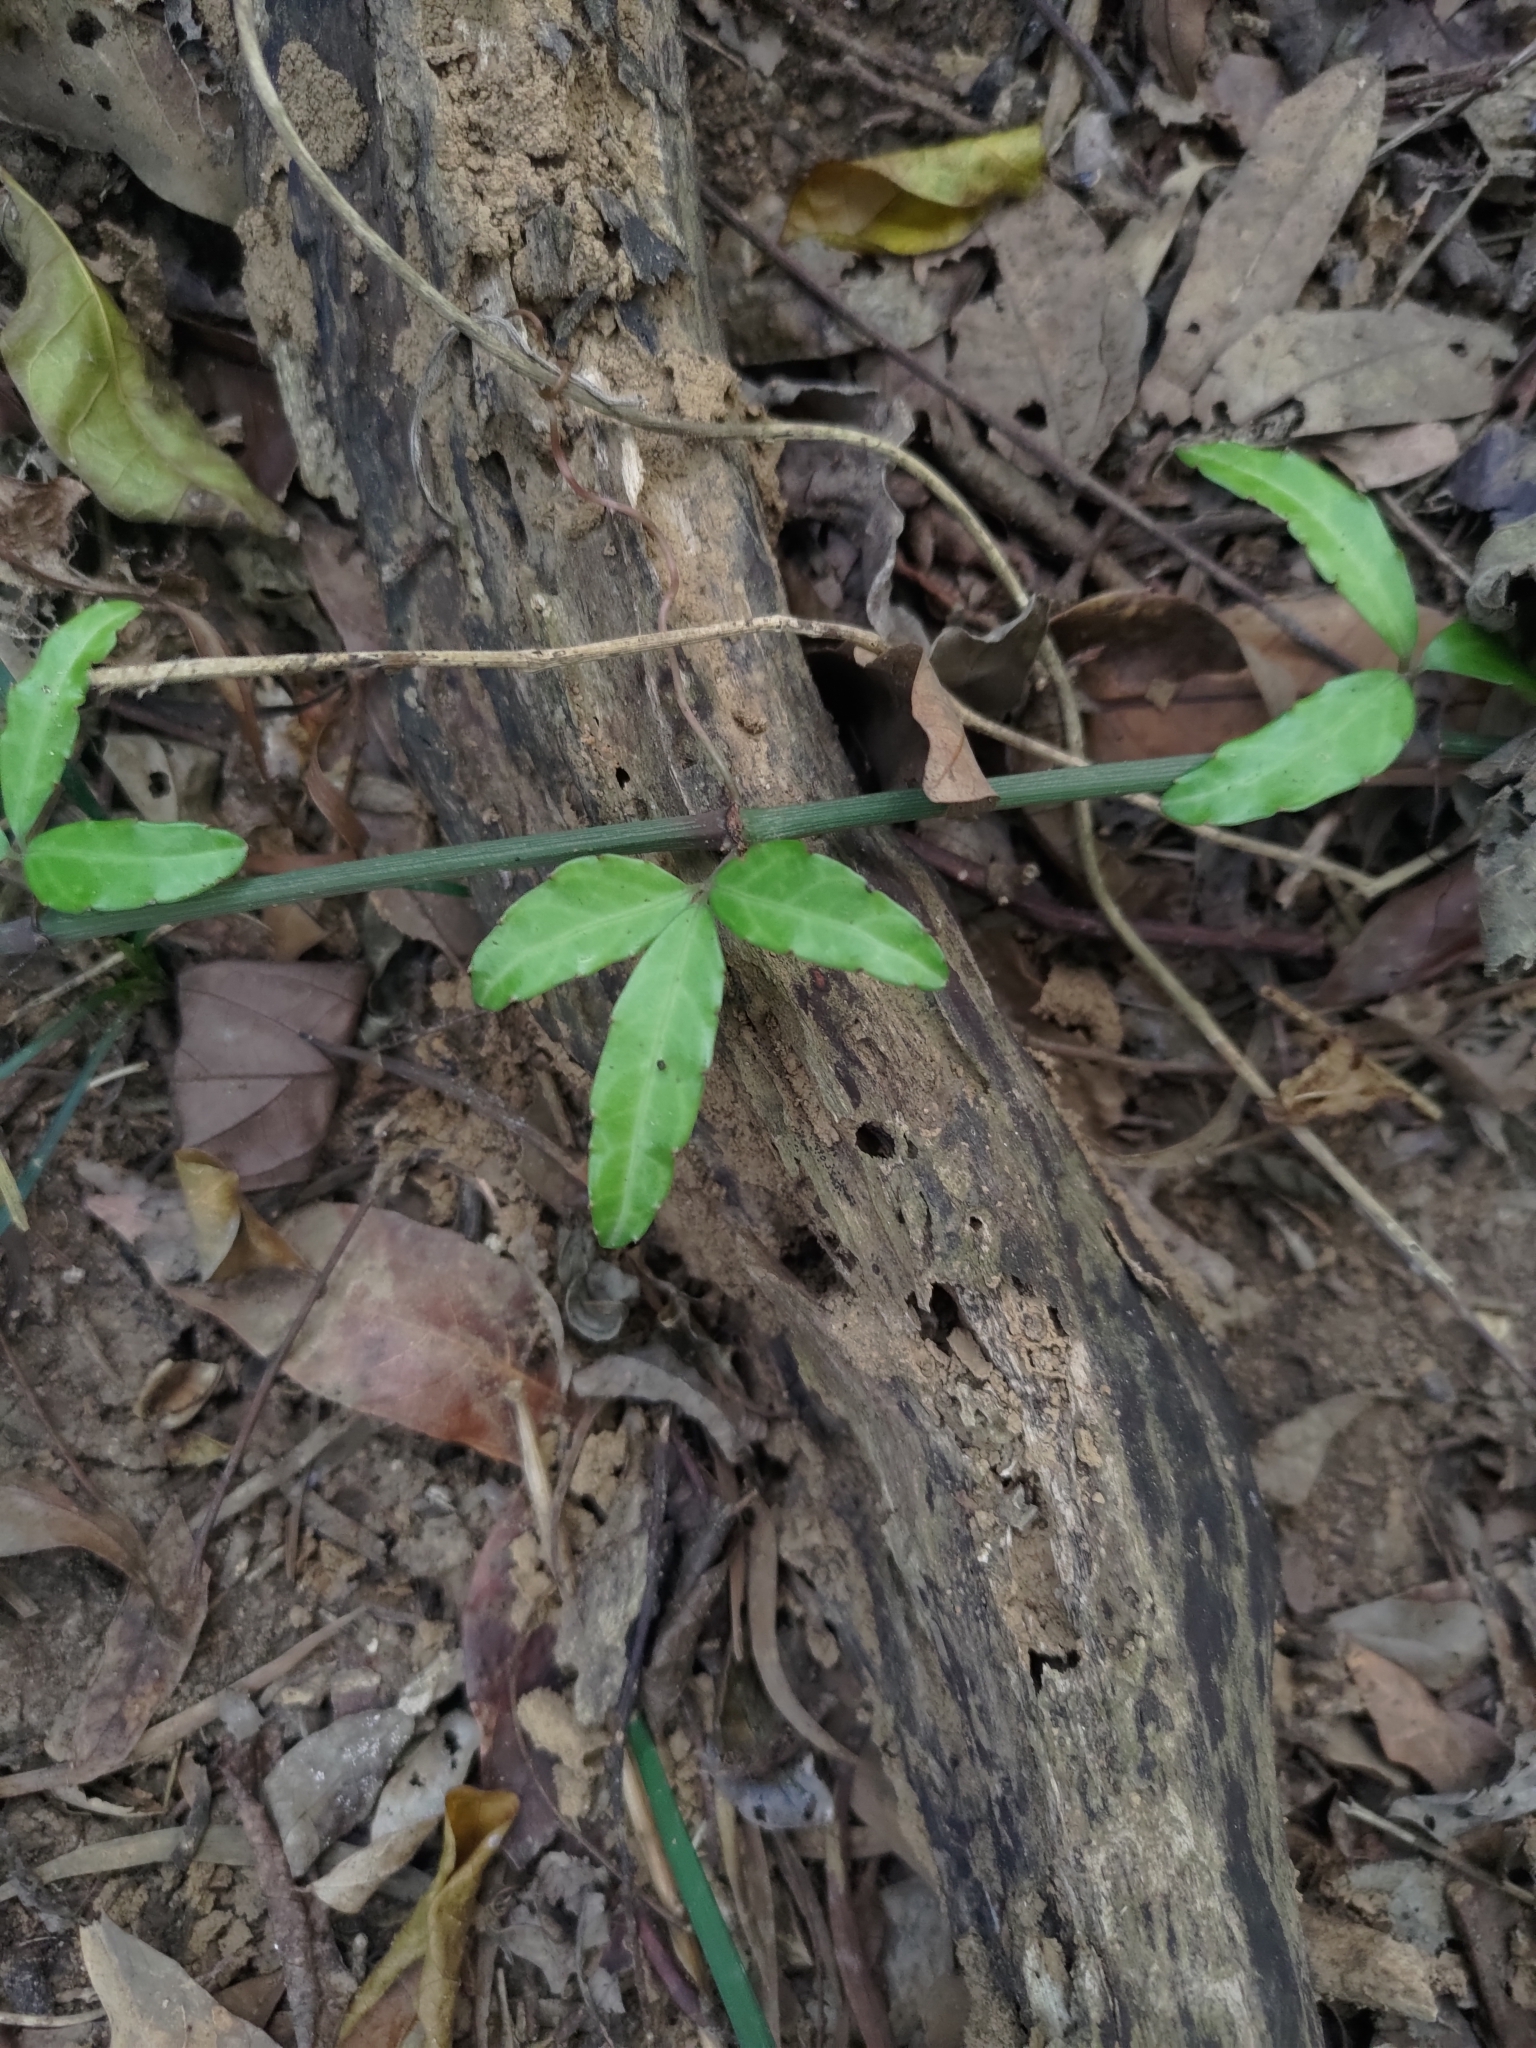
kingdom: Plantae
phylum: Tracheophyta
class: Magnoliopsida
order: Vitales
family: Vitaceae
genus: Tetrastigma
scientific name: Tetrastigma formosanum
